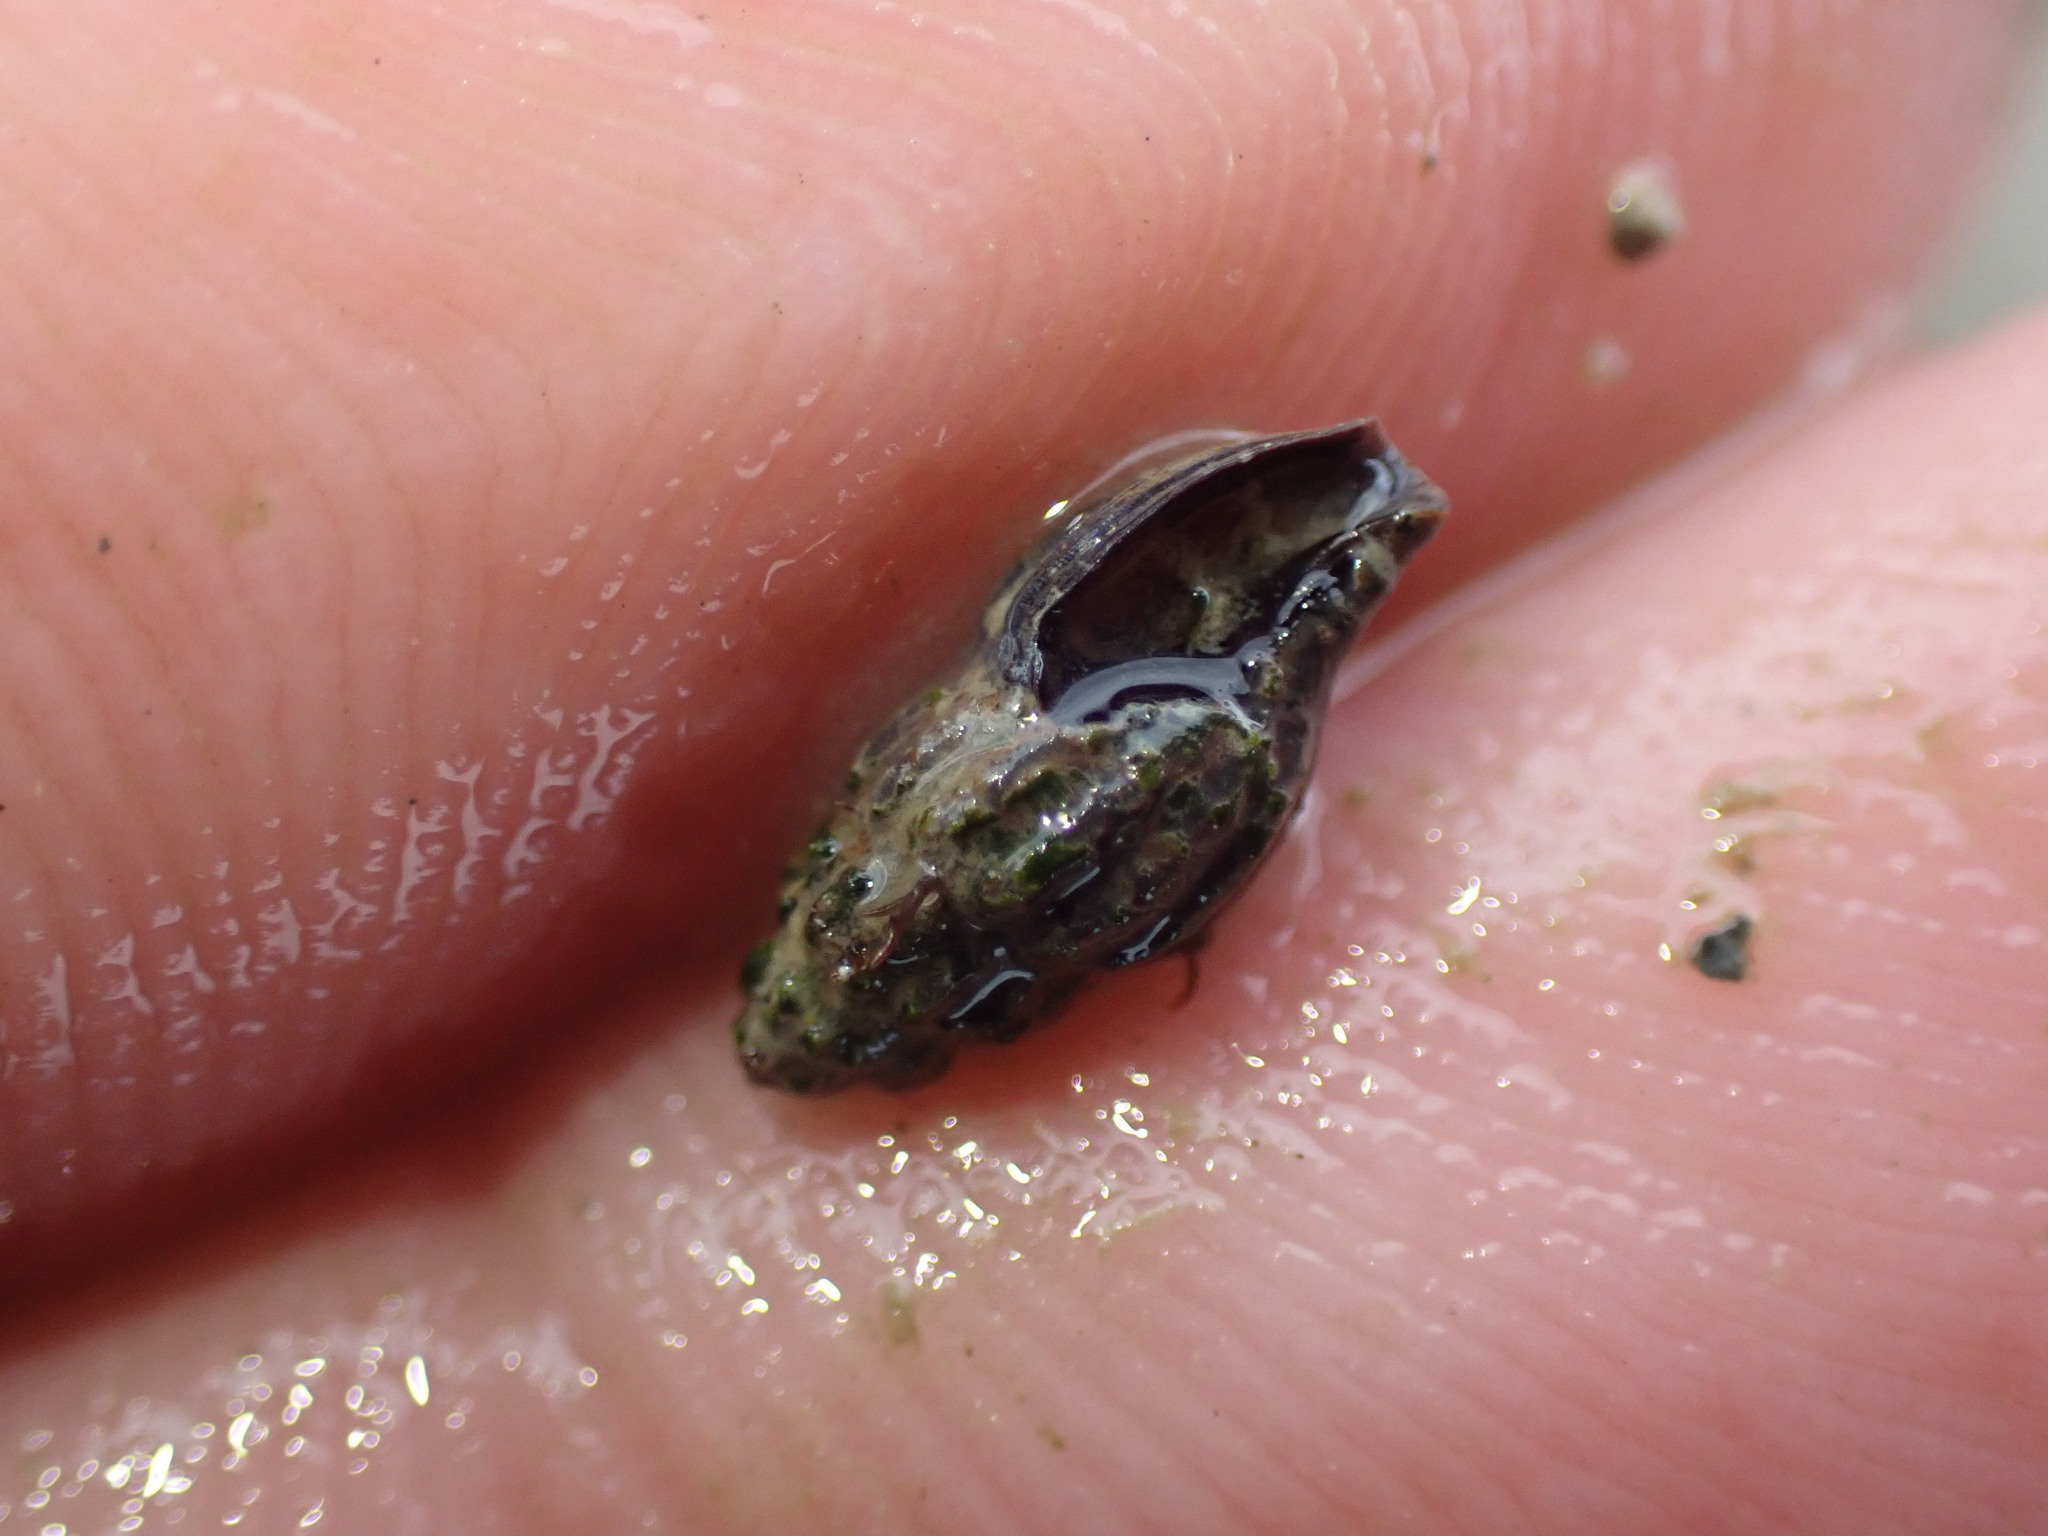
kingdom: Animalia
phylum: Mollusca
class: Gastropoda
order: Neogastropoda
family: Mangeliidae
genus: Neoguraleus
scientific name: Neoguraleus lyallensis
